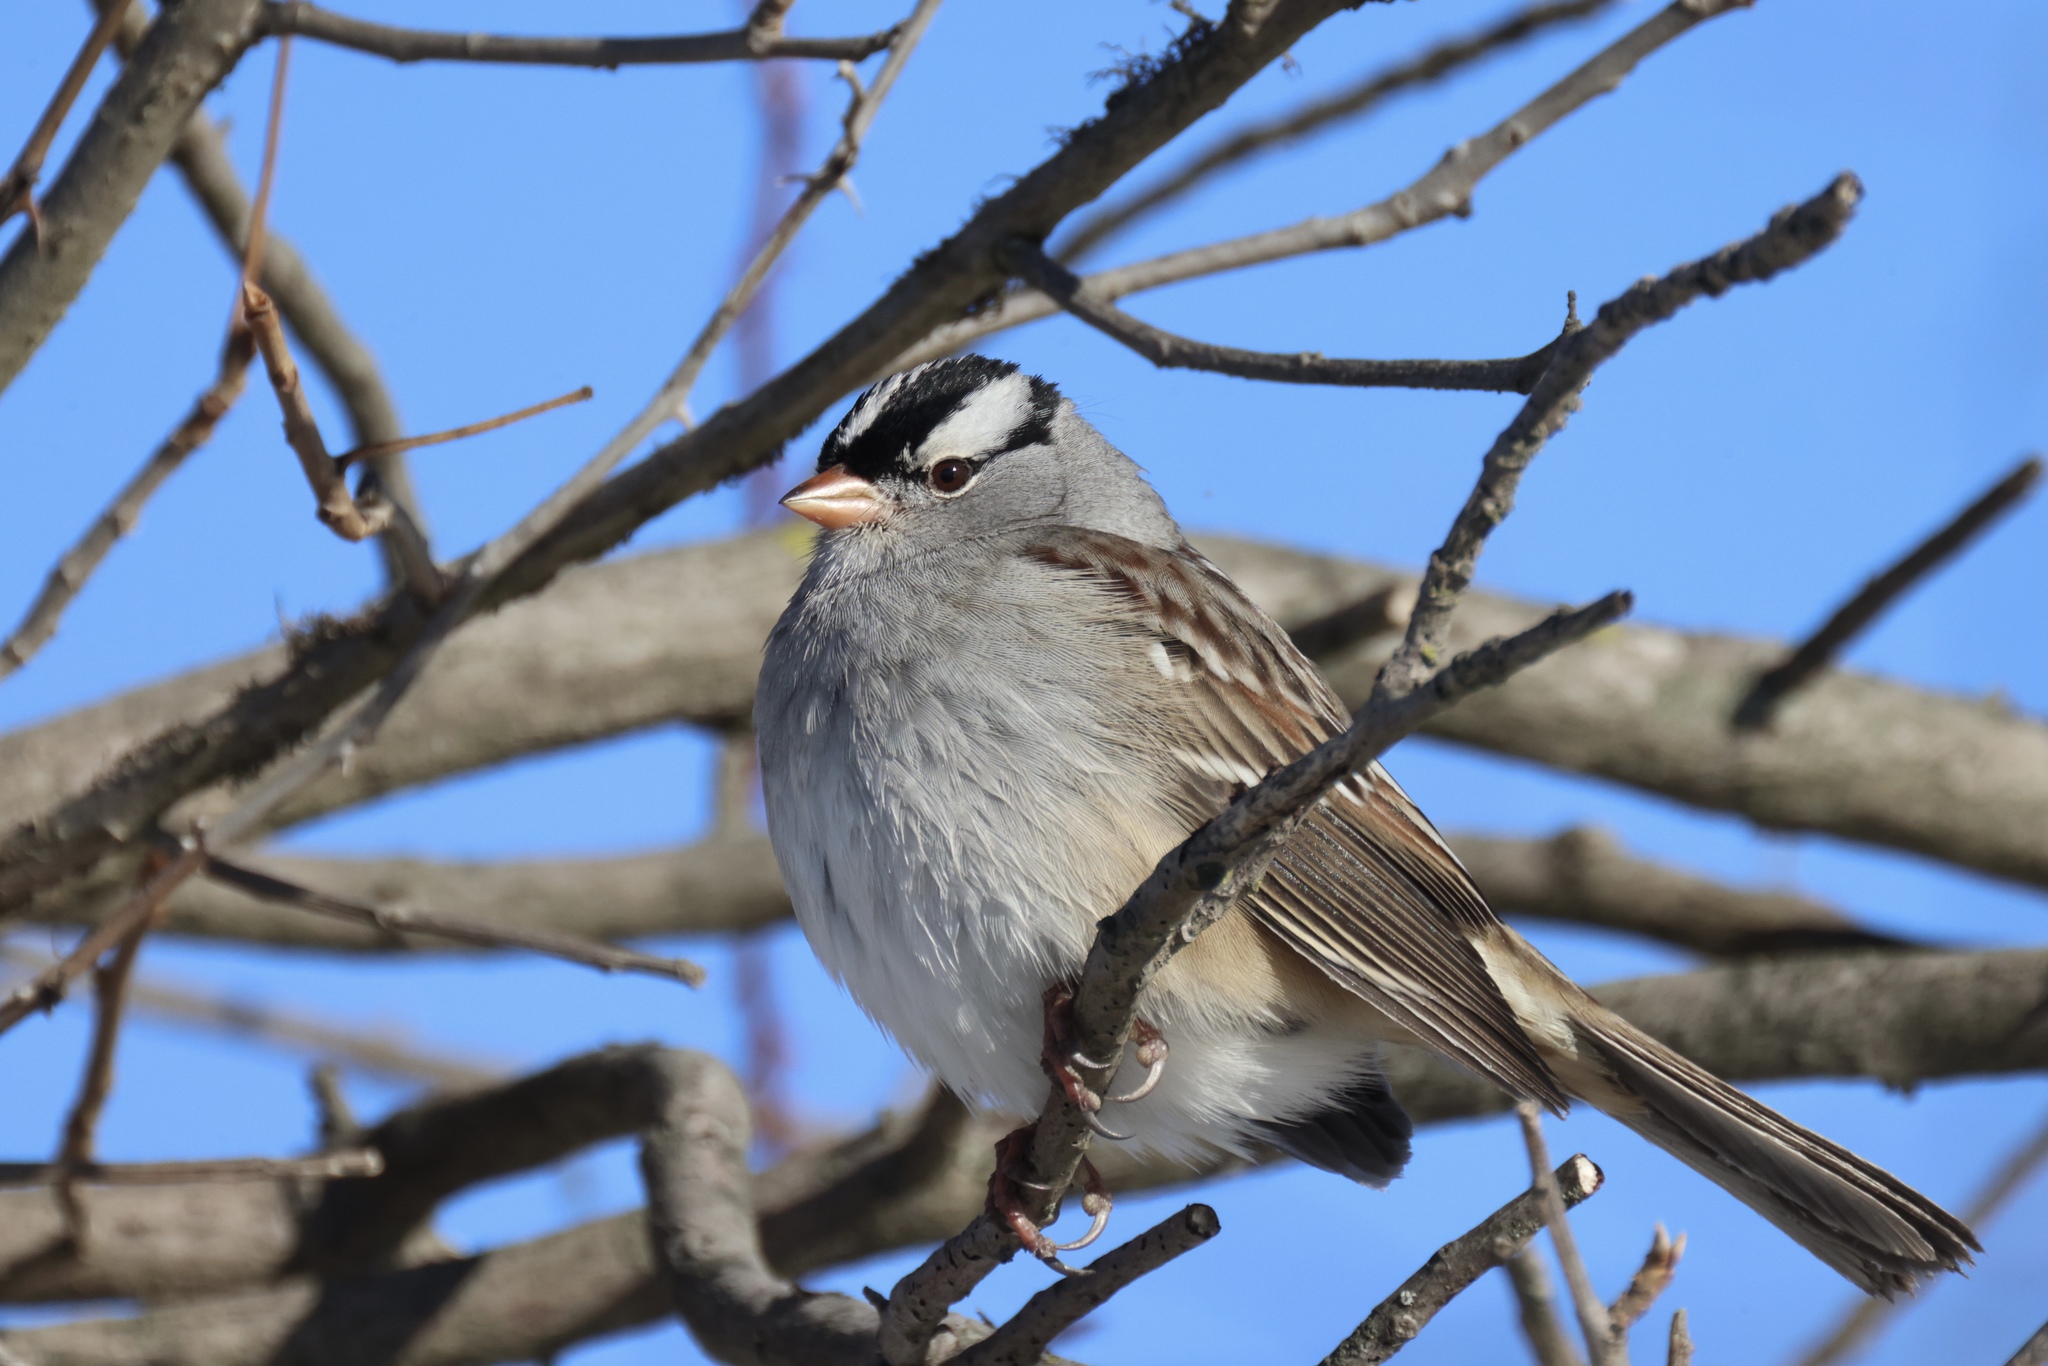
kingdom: Animalia
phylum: Chordata
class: Aves
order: Passeriformes
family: Passerellidae
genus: Zonotrichia
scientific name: Zonotrichia leucophrys
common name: White-crowned sparrow
